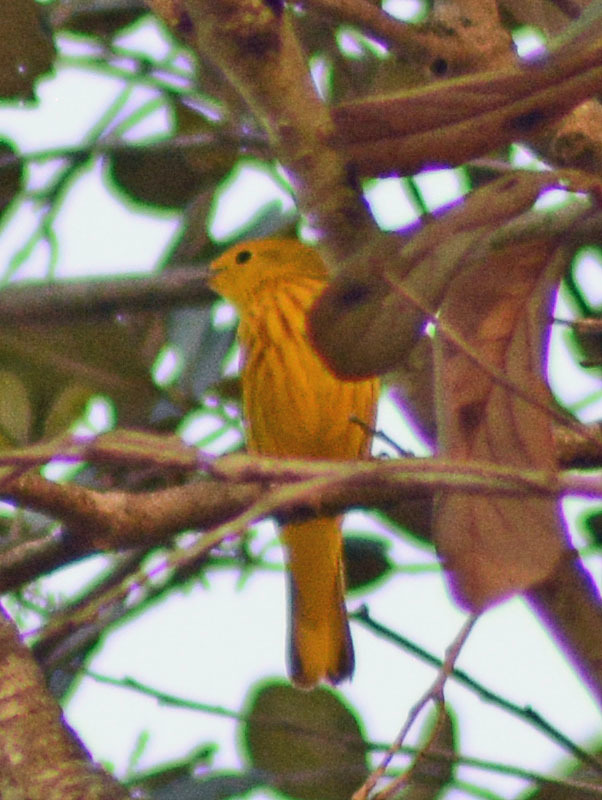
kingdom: Animalia
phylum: Chordata
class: Aves
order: Passeriformes
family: Parulidae
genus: Setophaga
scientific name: Setophaga petechia
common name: Yellow warbler
